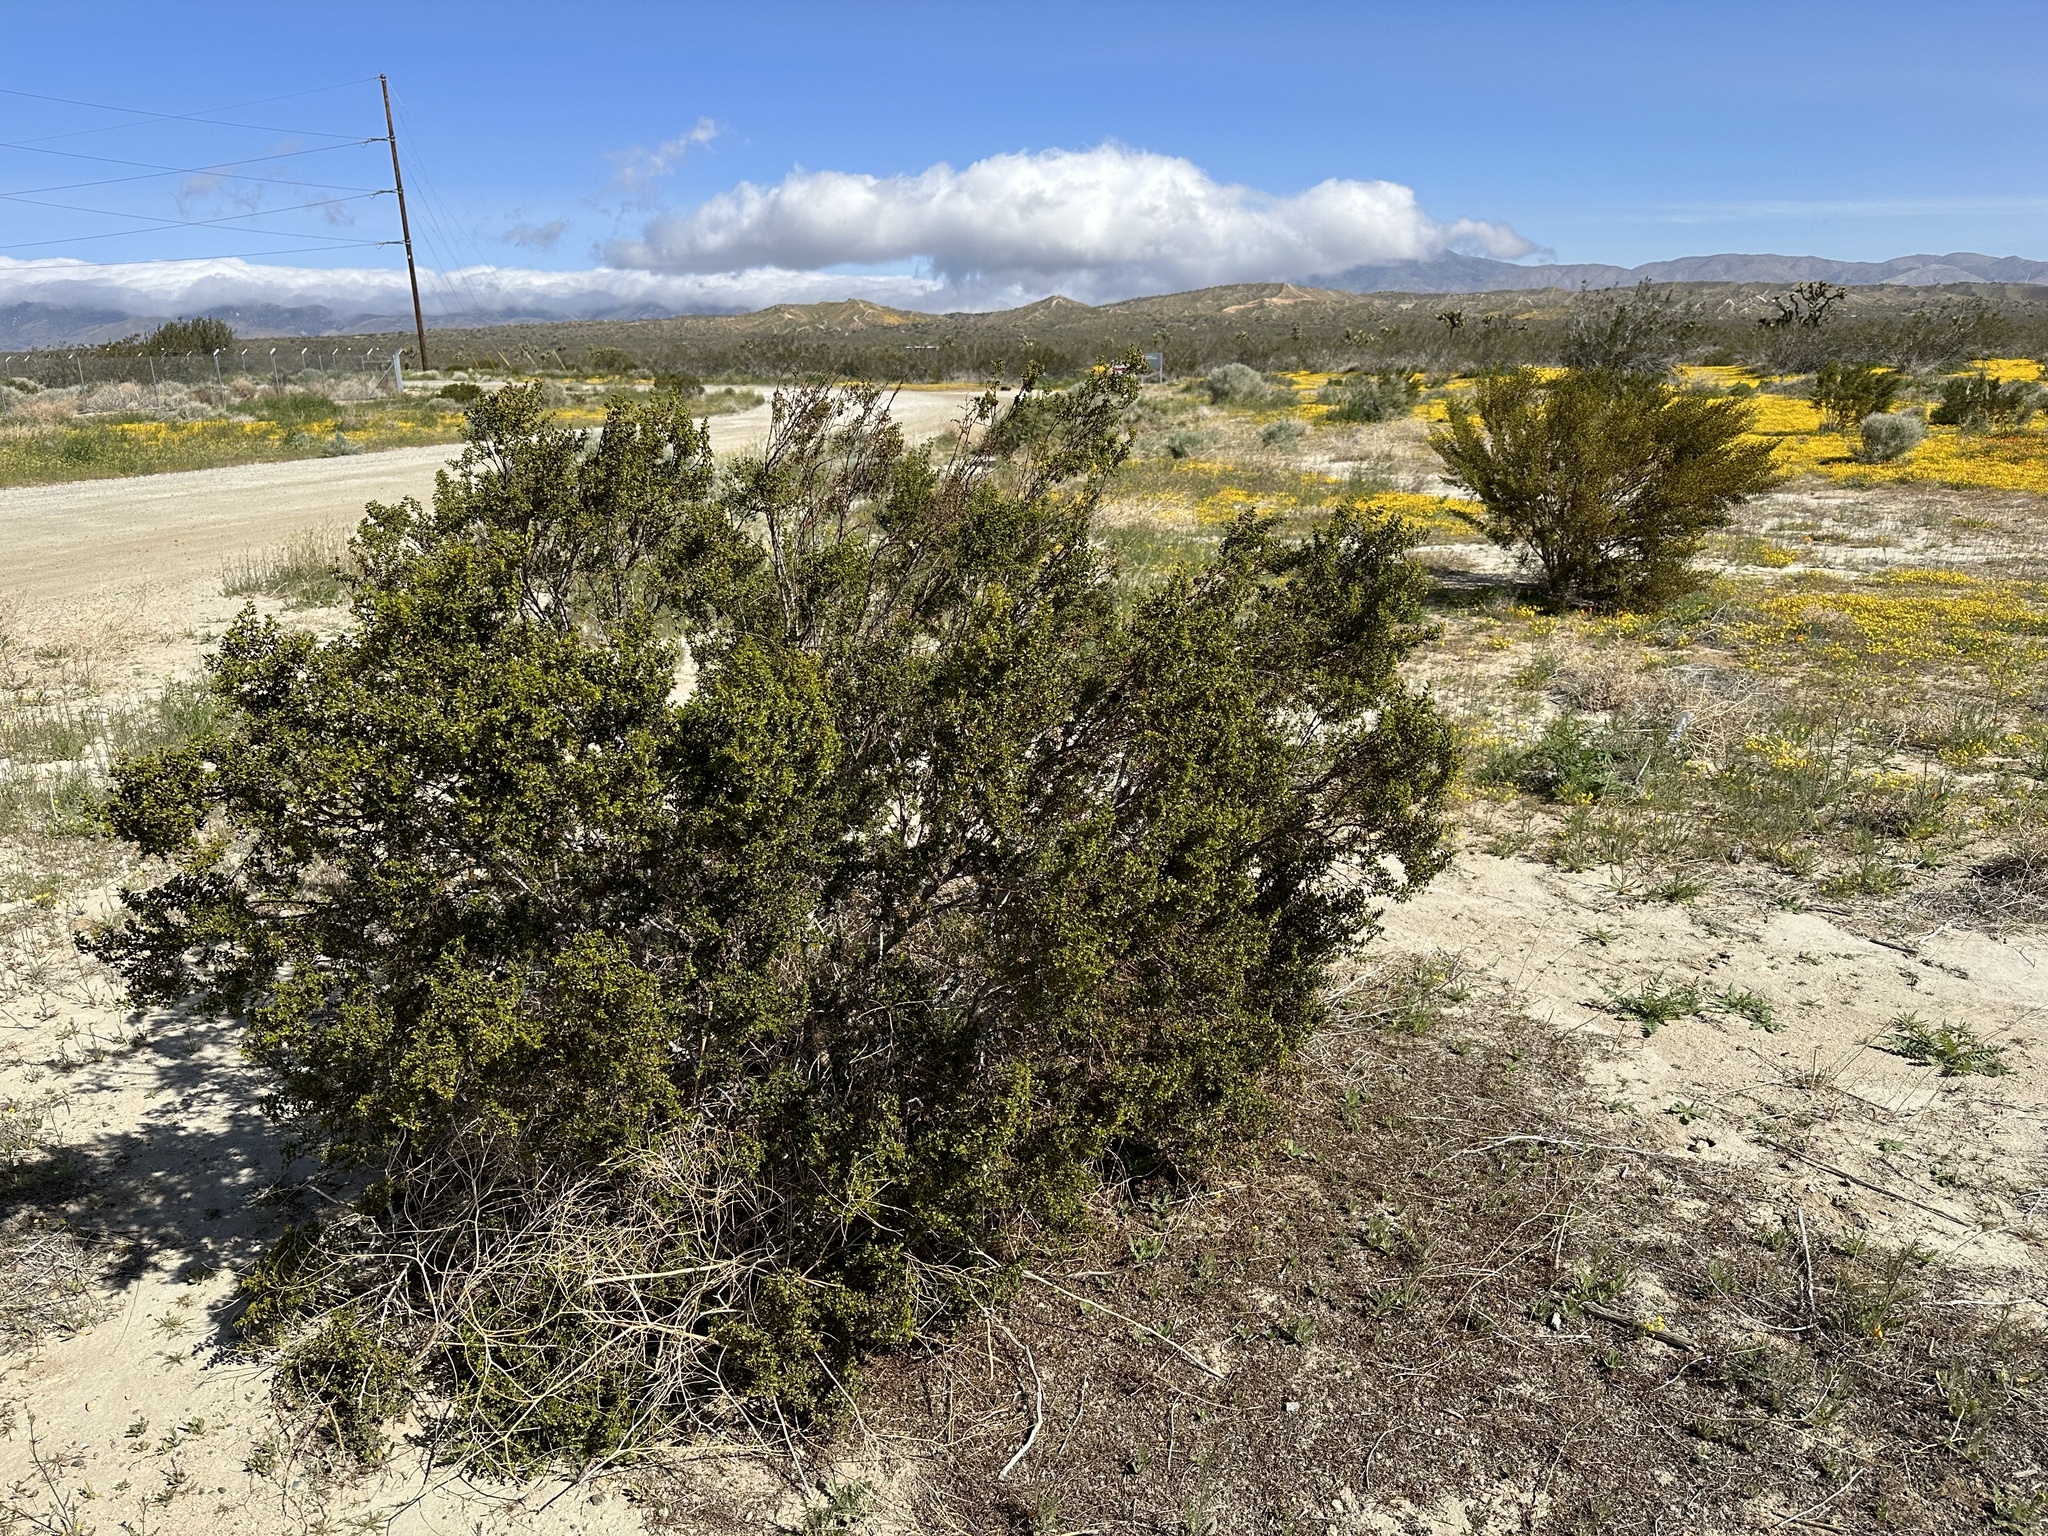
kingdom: Plantae
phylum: Tracheophyta
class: Magnoliopsida
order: Zygophyllales
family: Zygophyllaceae
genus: Larrea
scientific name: Larrea tridentata
